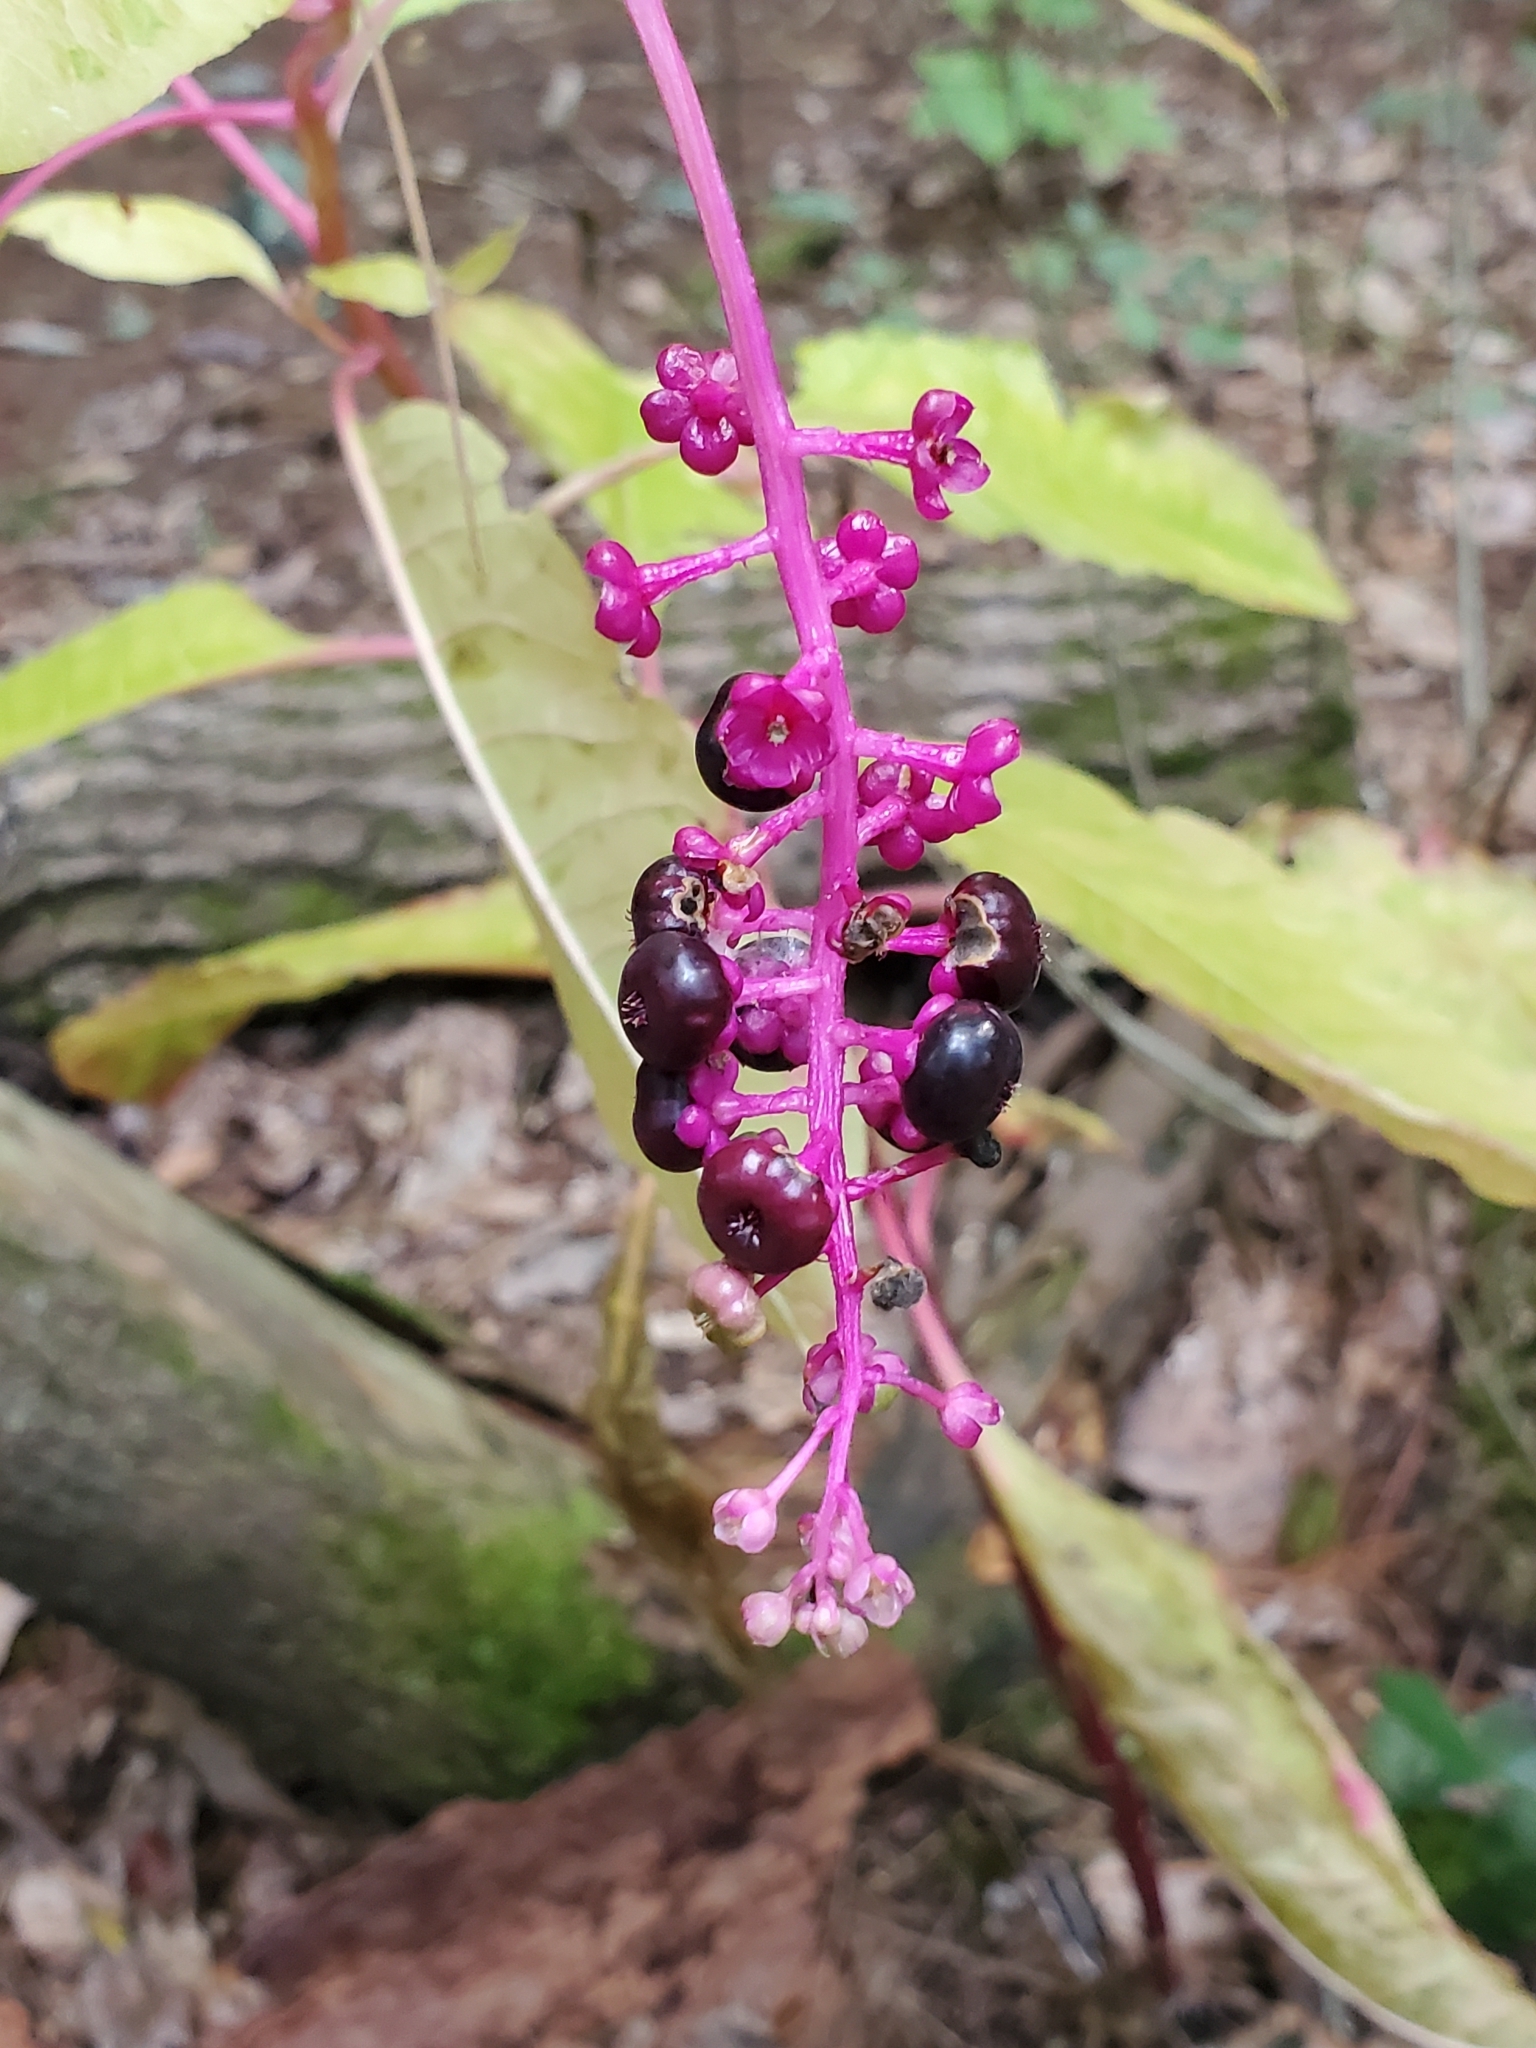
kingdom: Plantae
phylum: Tracheophyta
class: Magnoliopsida
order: Caryophyllales
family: Phytolaccaceae
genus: Phytolacca
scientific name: Phytolacca americana
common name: American pokeweed
